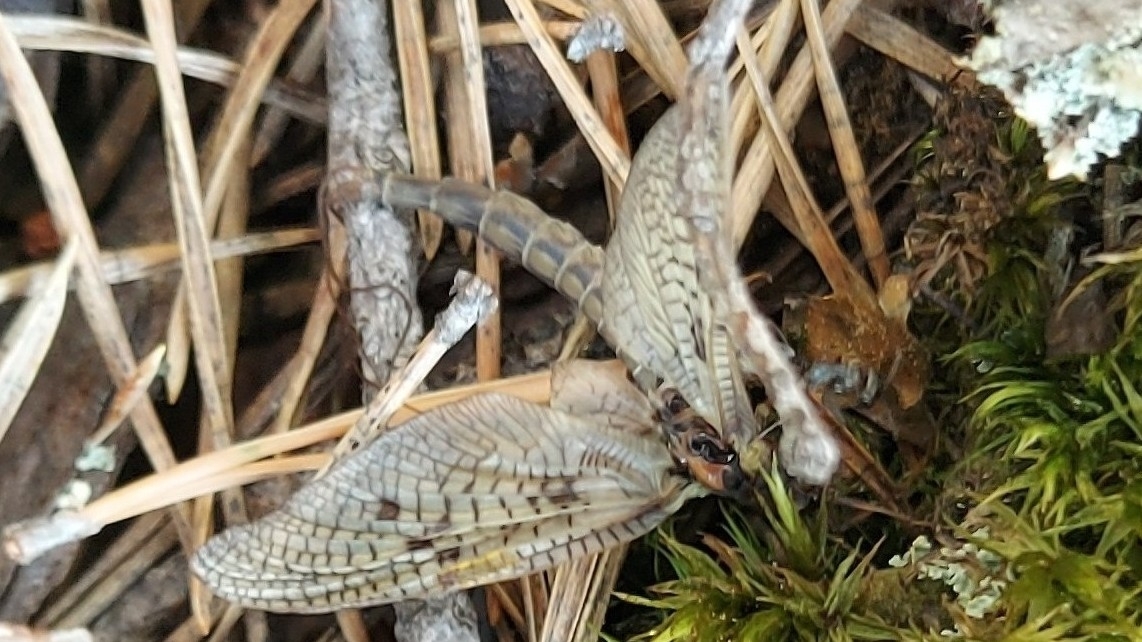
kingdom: Animalia
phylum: Arthropoda
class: Insecta
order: Ephemeroptera
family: Ephemeridae
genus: Ephemera
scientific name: Ephemera vulgata
